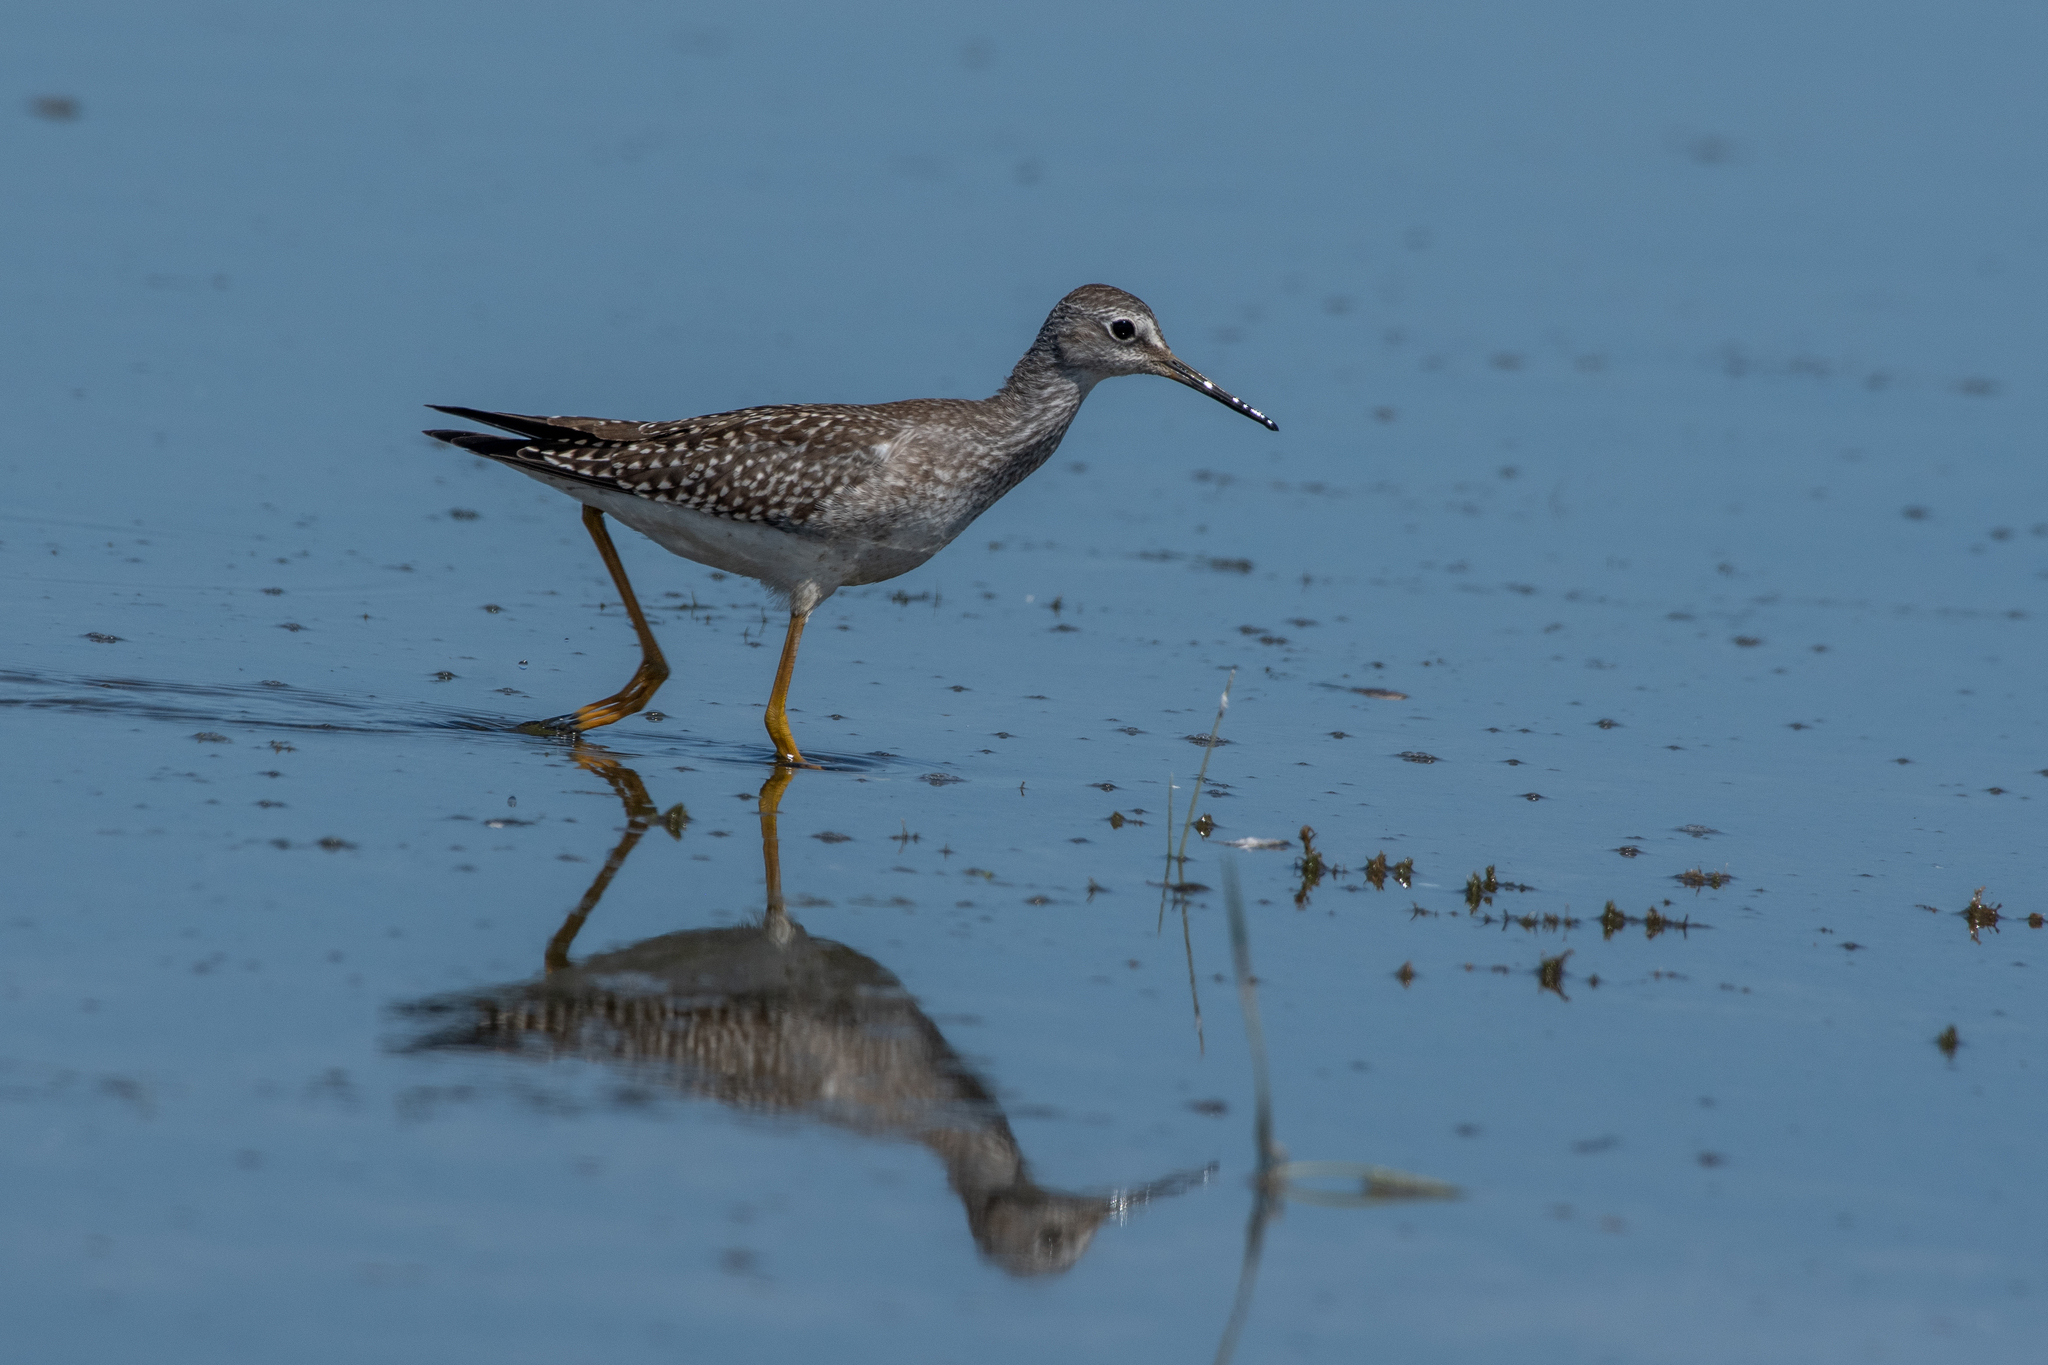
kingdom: Animalia
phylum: Chordata
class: Aves
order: Charadriiformes
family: Scolopacidae
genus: Tringa
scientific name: Tringa flavipes
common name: Lesser yellowlegs
